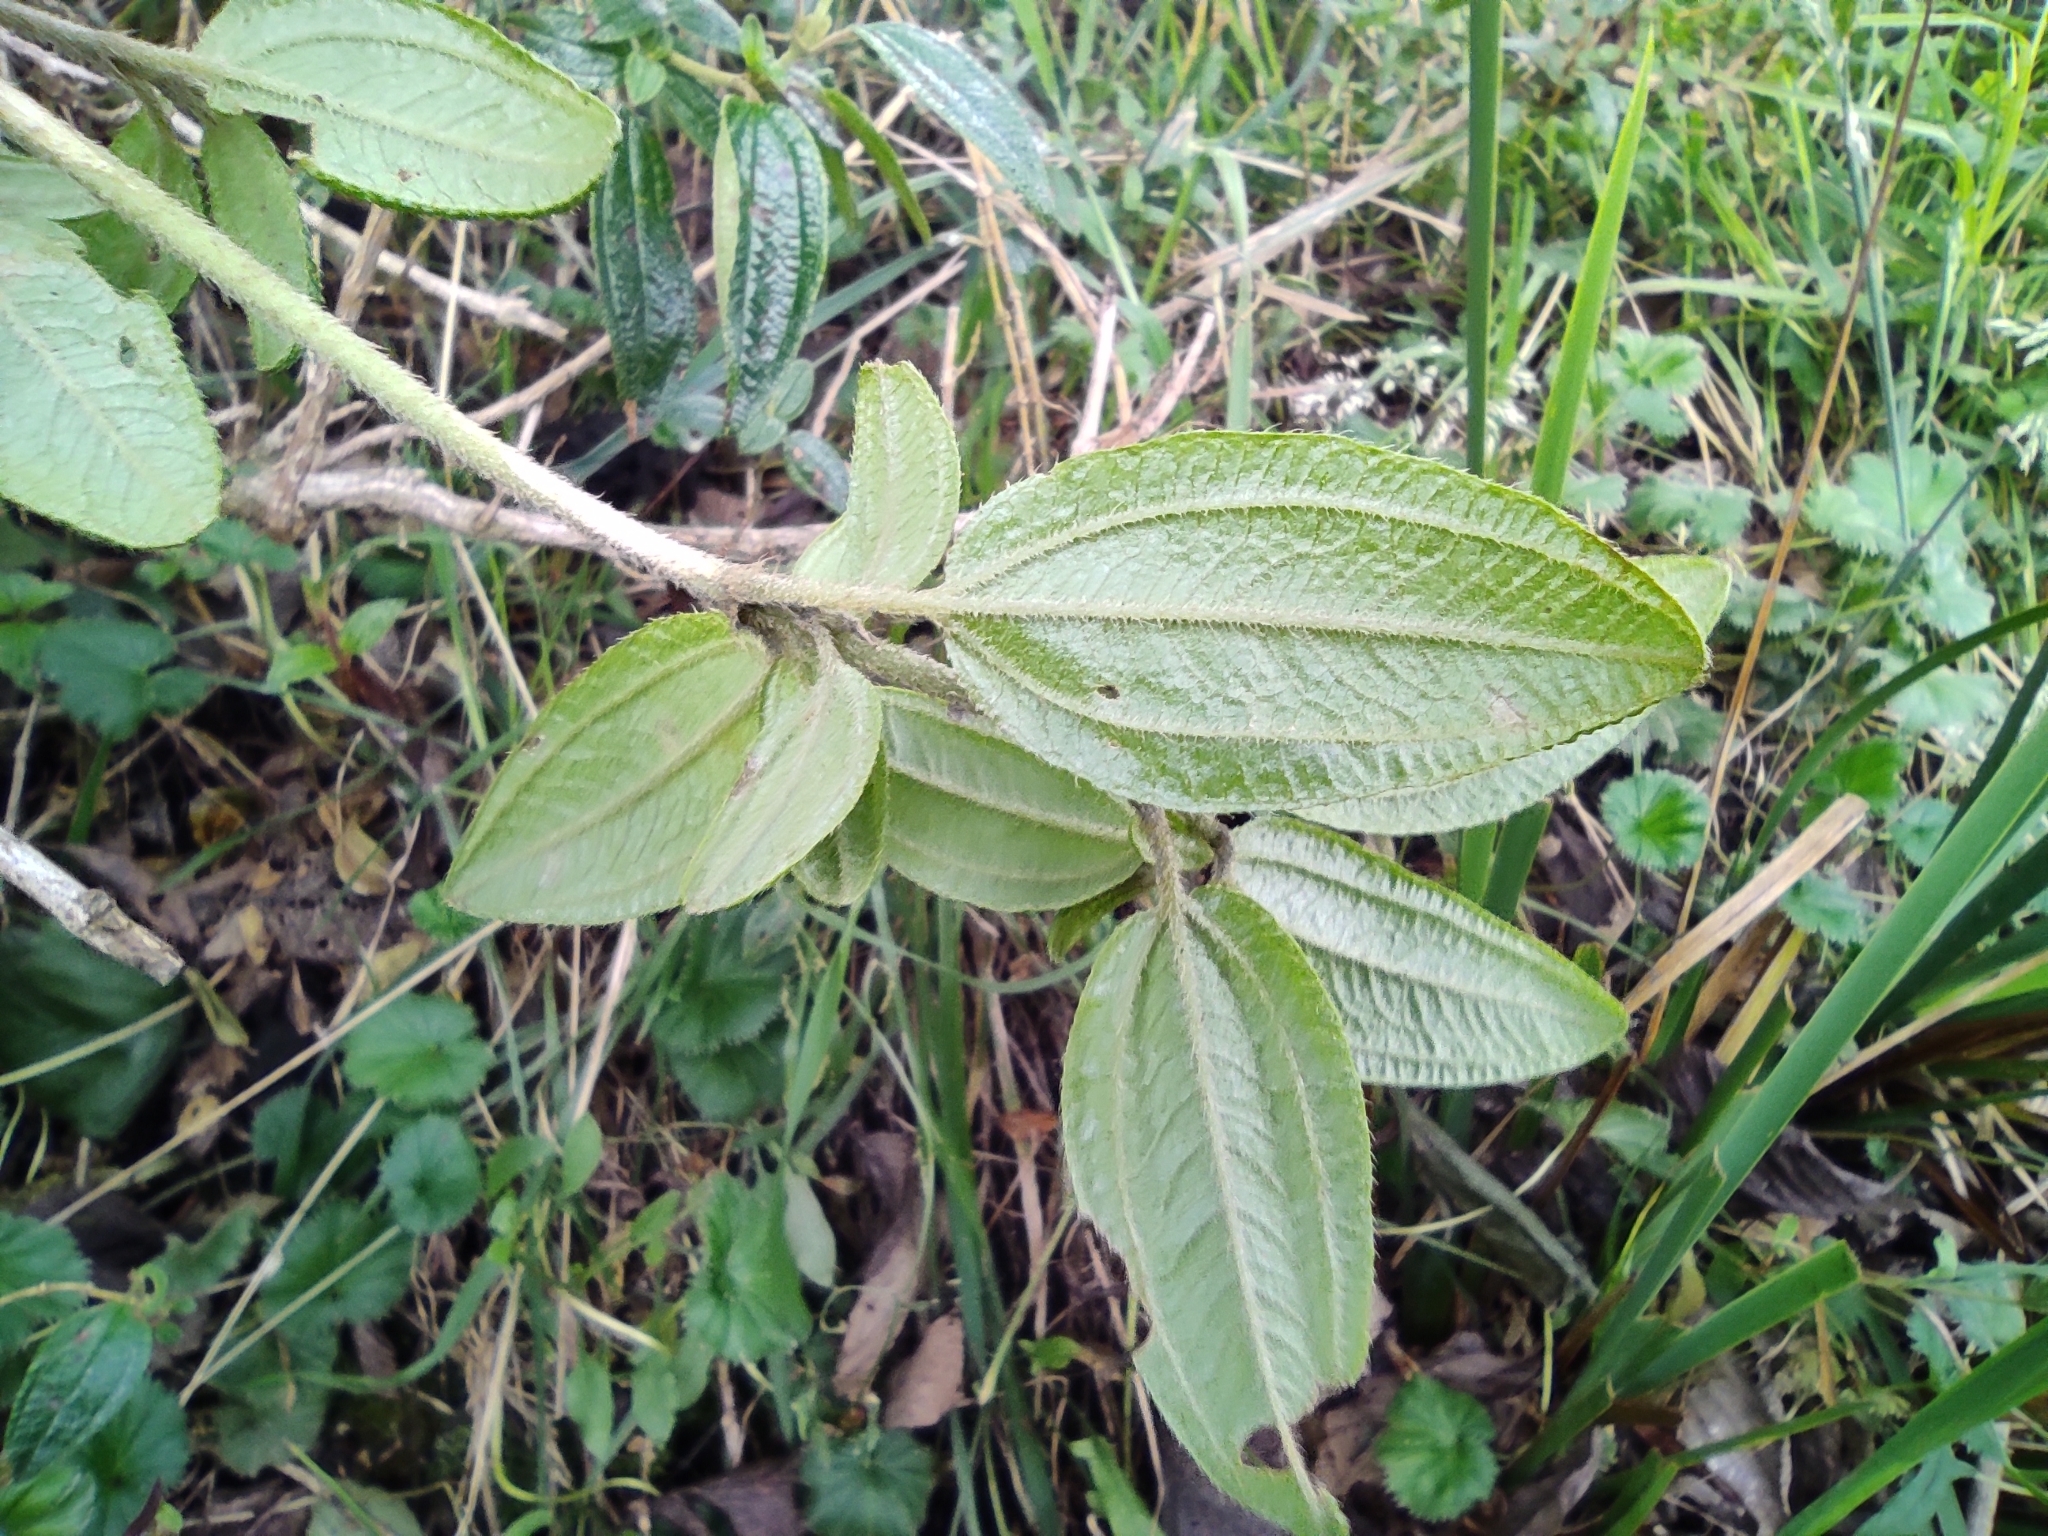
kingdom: Plantae
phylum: Tracheophyta
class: Magnoliopsida
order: Myrtales
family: Melastomataceae
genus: Brachyotum
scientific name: Brachyotum ledifolium
